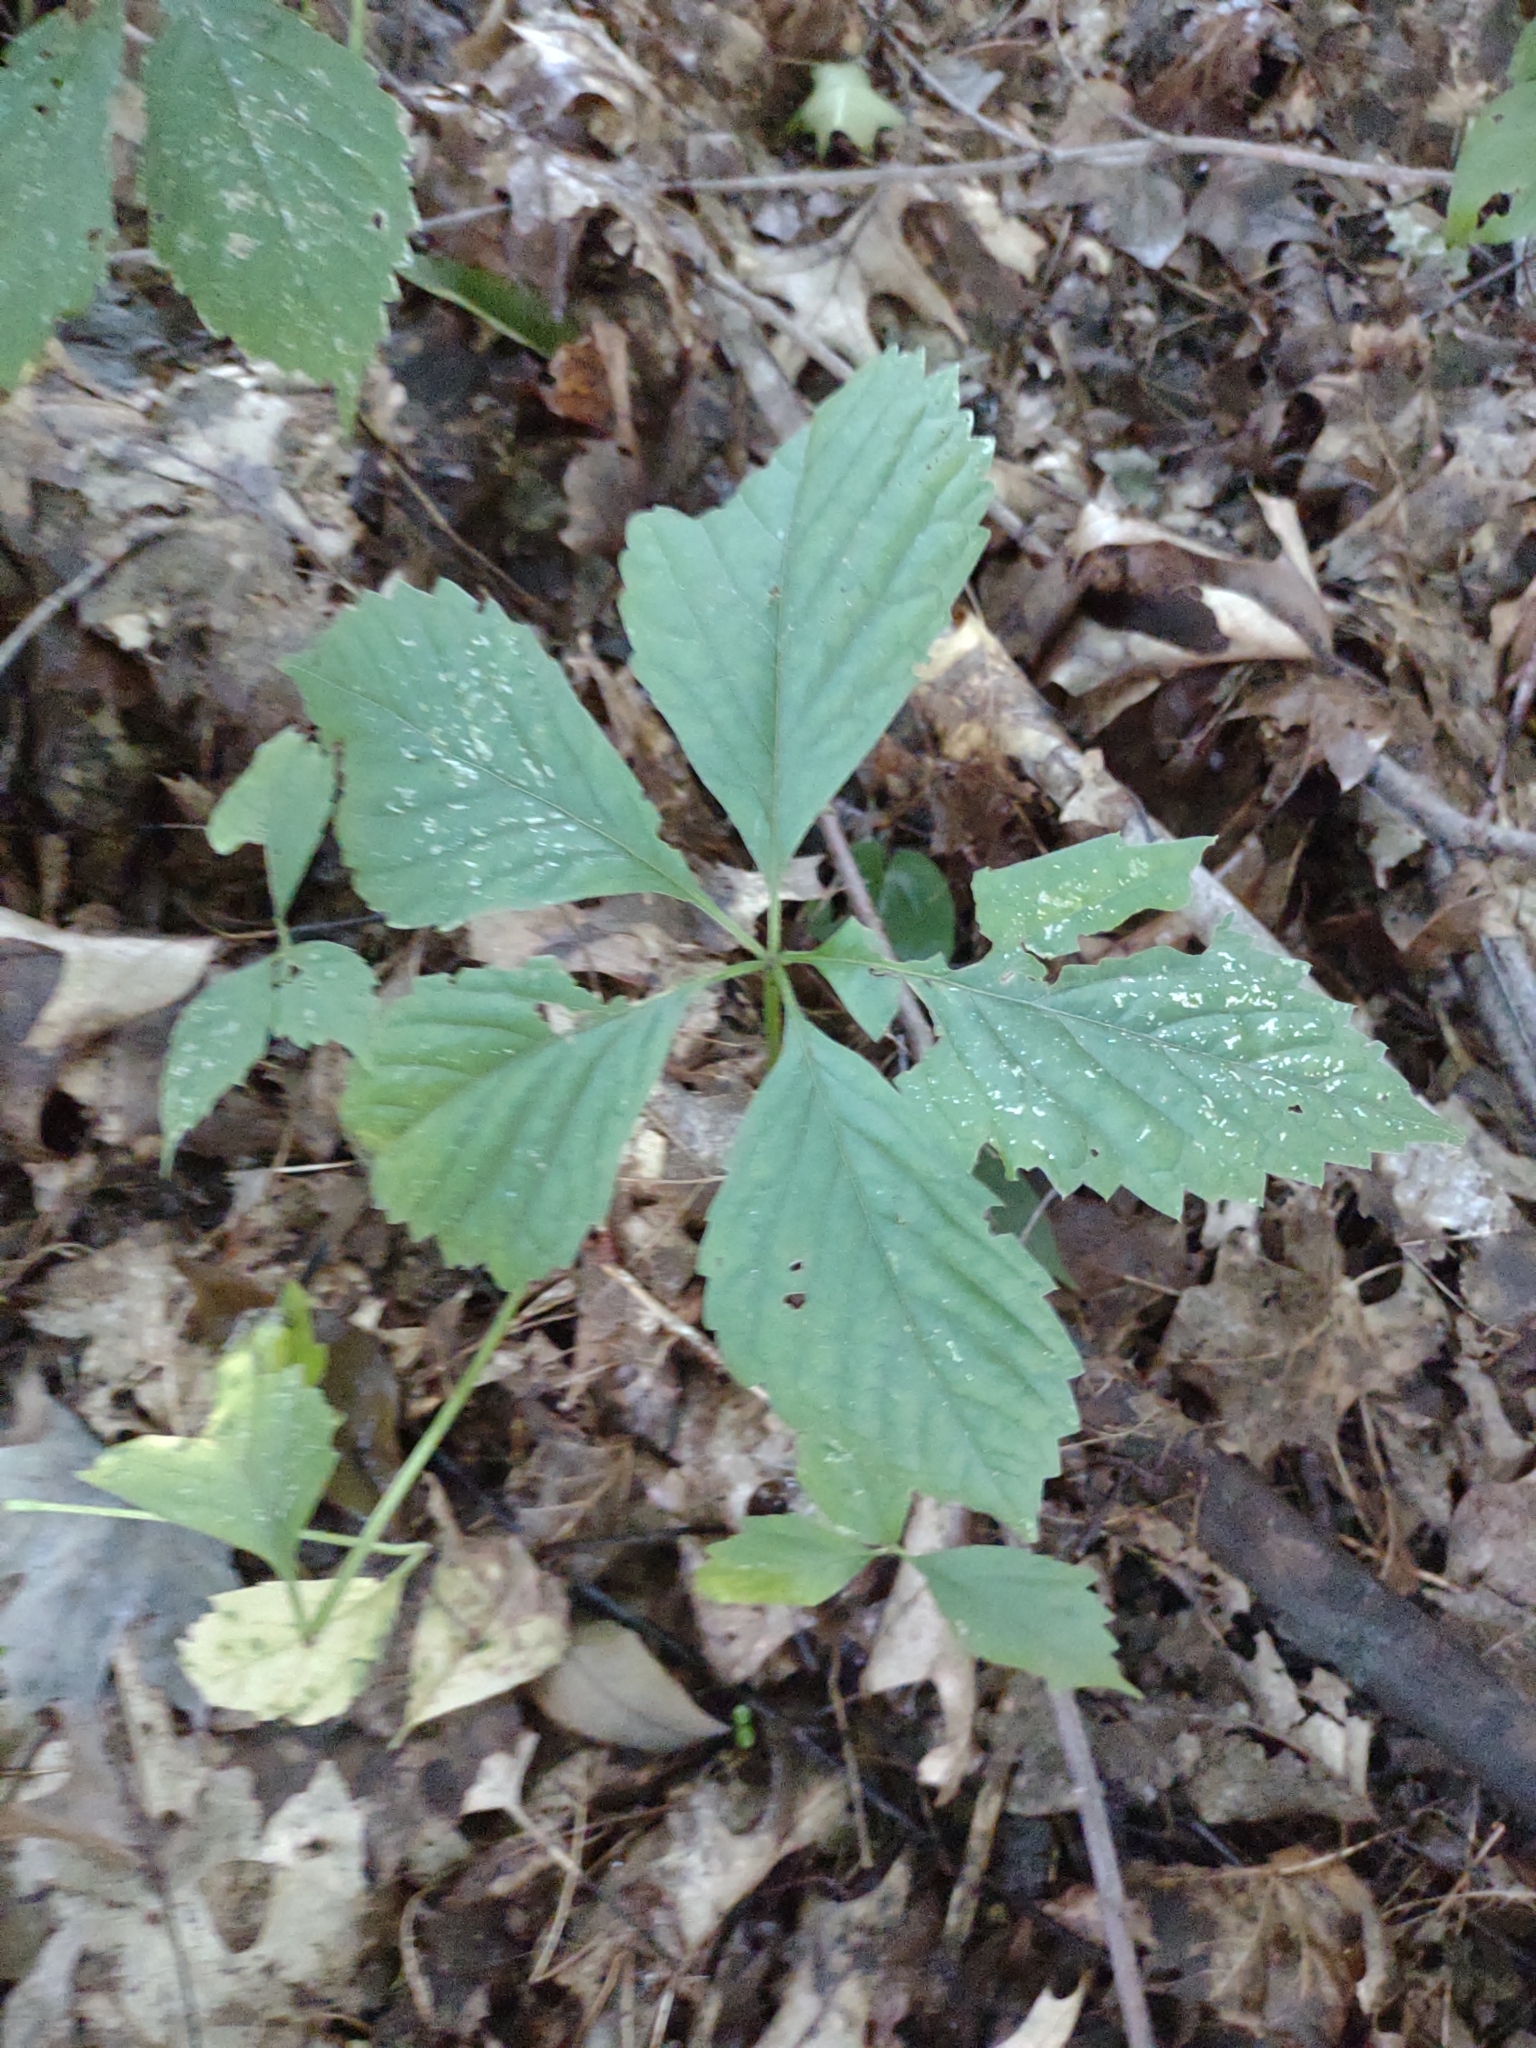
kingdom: Plantae
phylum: Tracheophyta
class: Magnoliopsida
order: Vitales
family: Vitaceae
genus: Parthenocissus
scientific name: Parthenocissus quinquefolia
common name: Virginia-creeper
